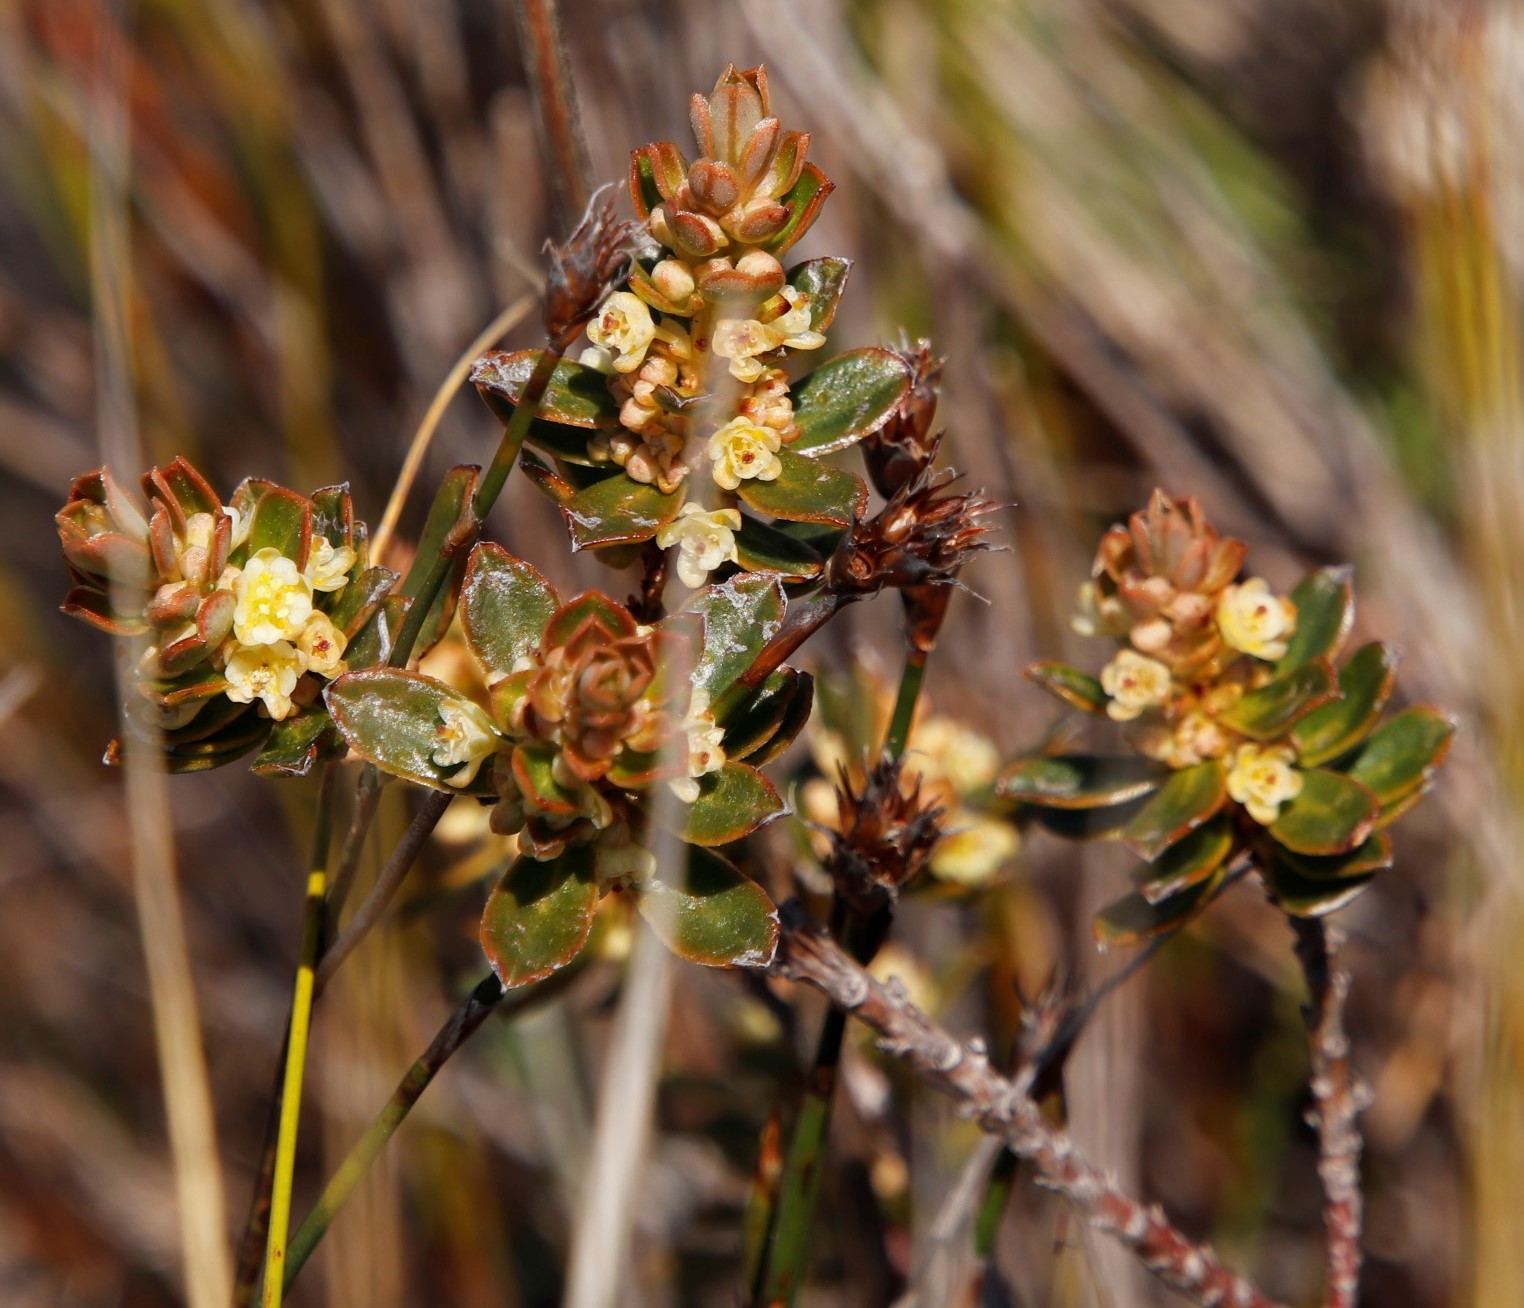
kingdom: Plantae
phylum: Tracheophyta
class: Magnoliopsida
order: Malpighiales
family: Peraceae
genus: Clutia
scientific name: Clutia alaternoides
